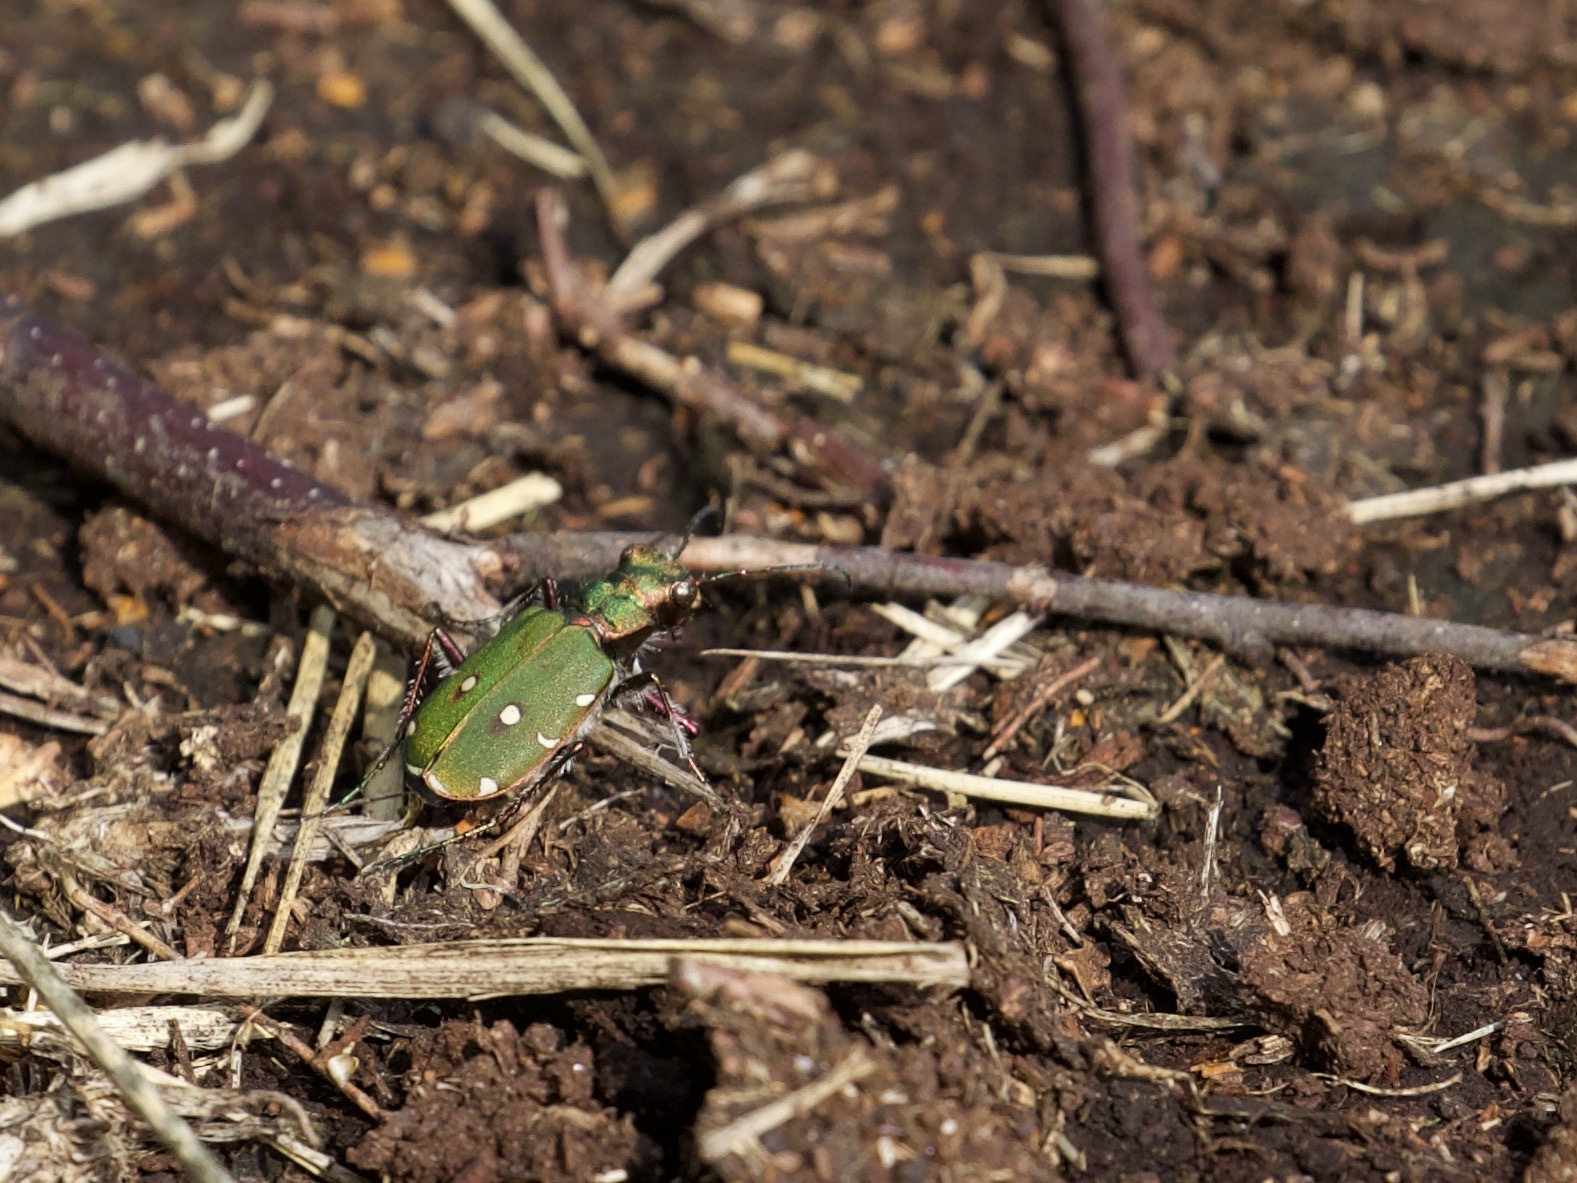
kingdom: Animalia
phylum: Arthropoda
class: Insecta
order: Coleoptera
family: Carabidae
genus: Cicindela
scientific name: Cicindela campestris
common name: Common tiger beetle
